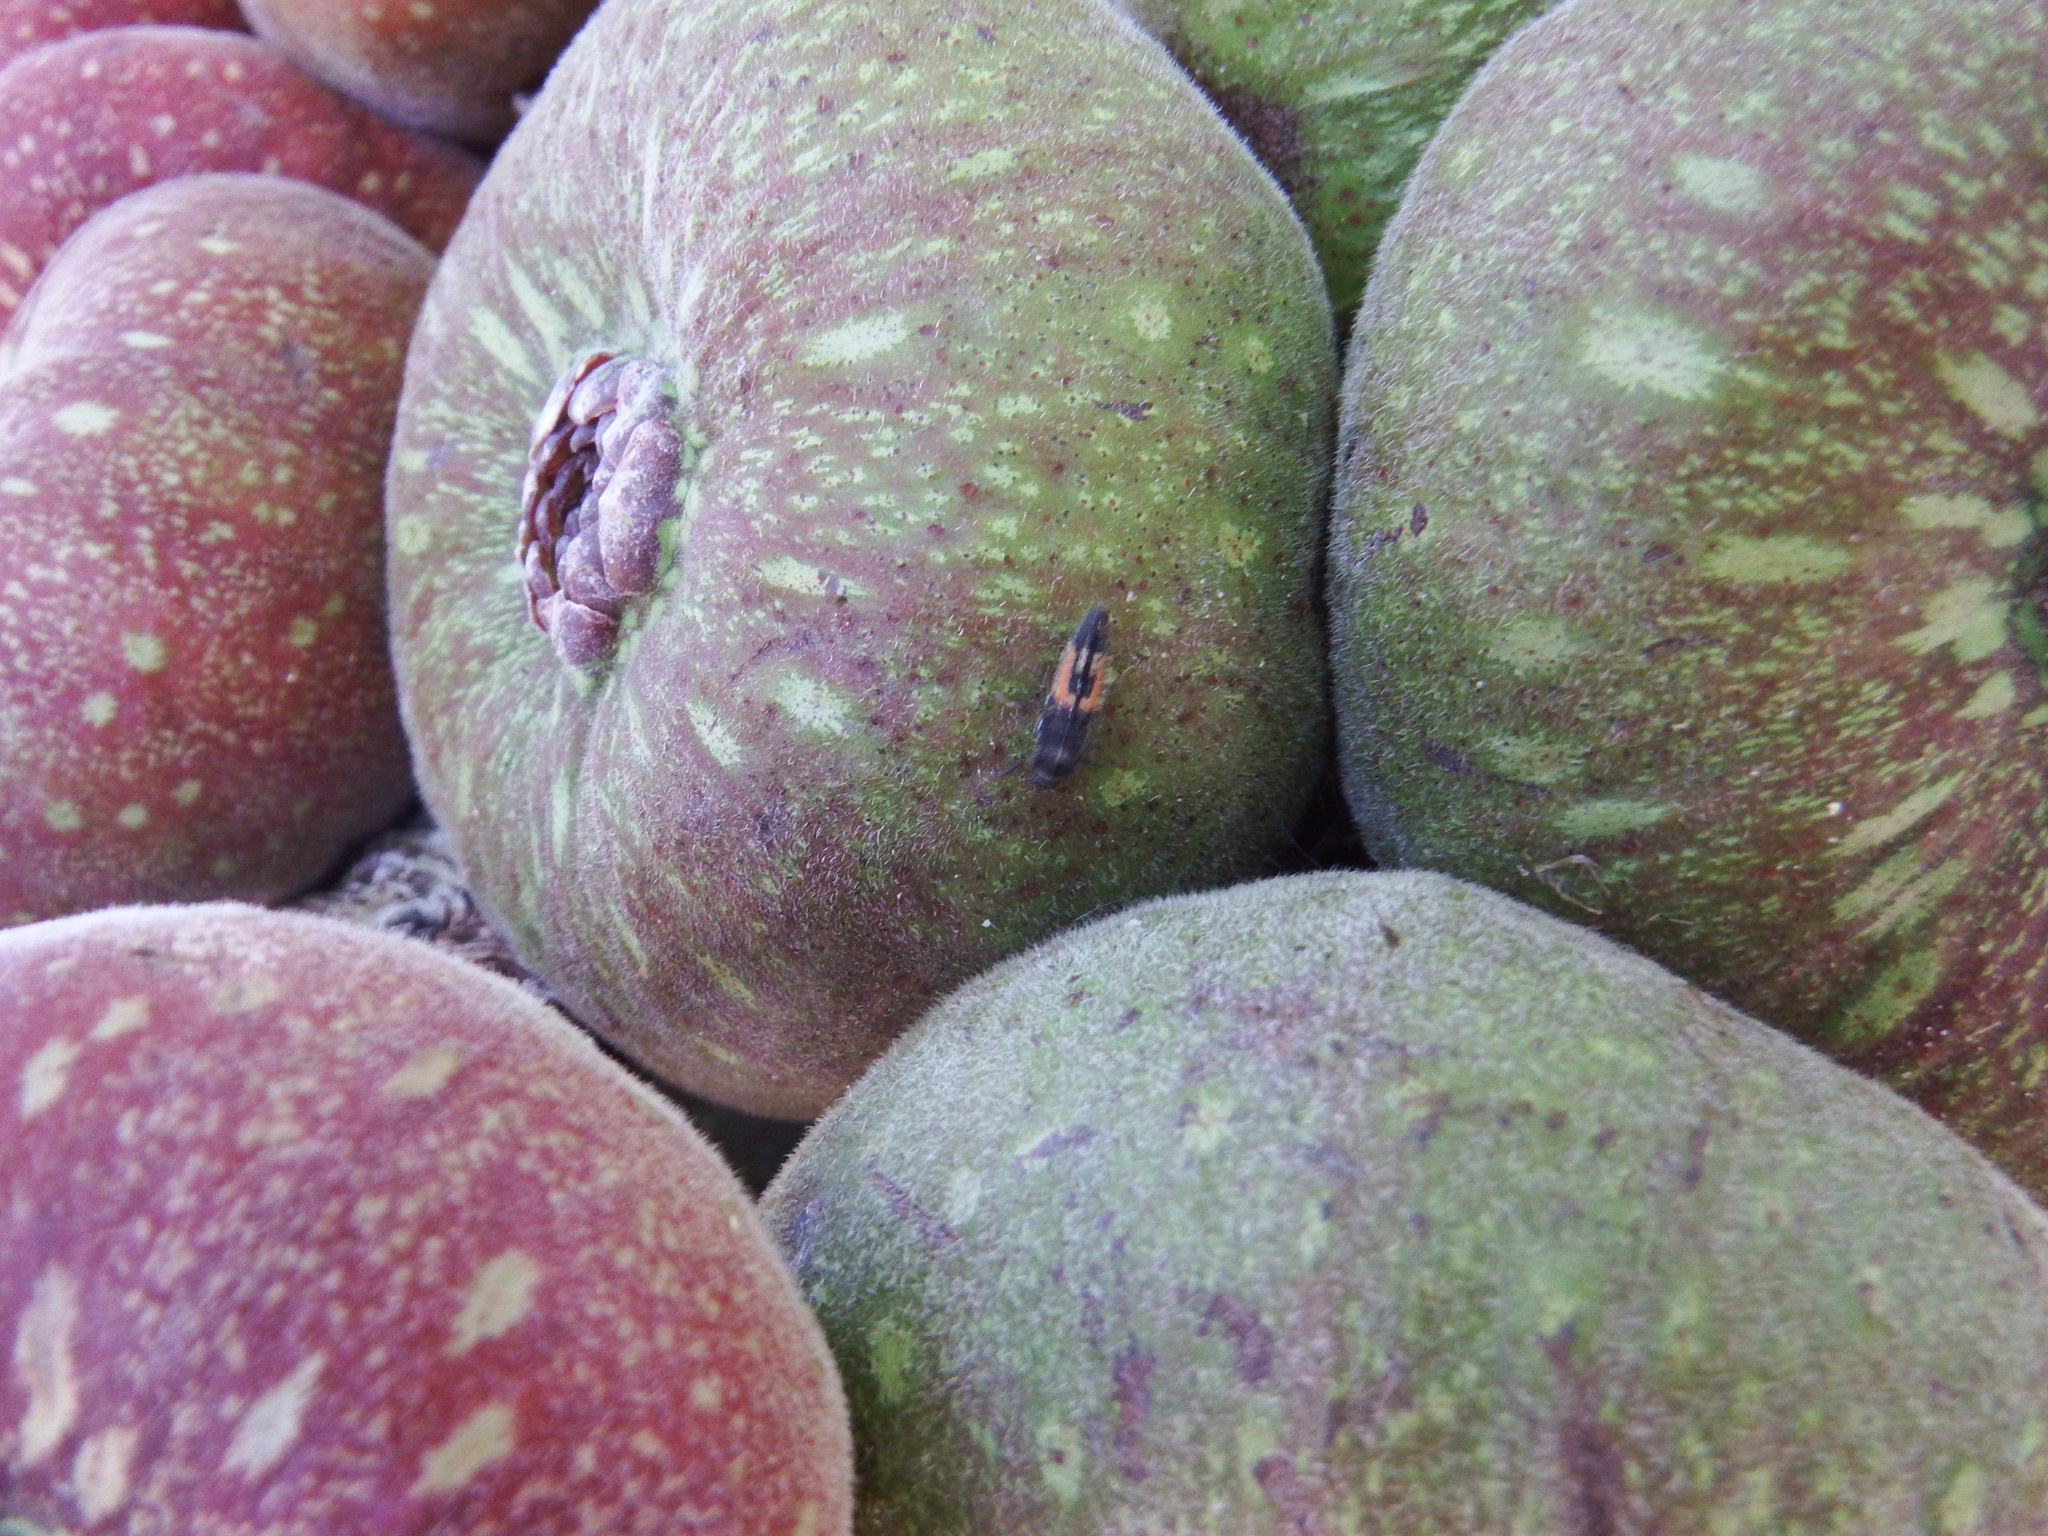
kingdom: Animalia
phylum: Arthropoda
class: Insecta
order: Coleoptera
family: Coccinellidae
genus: Harmonia
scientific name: Harmonia axyridis
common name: Harlequin ladybird
